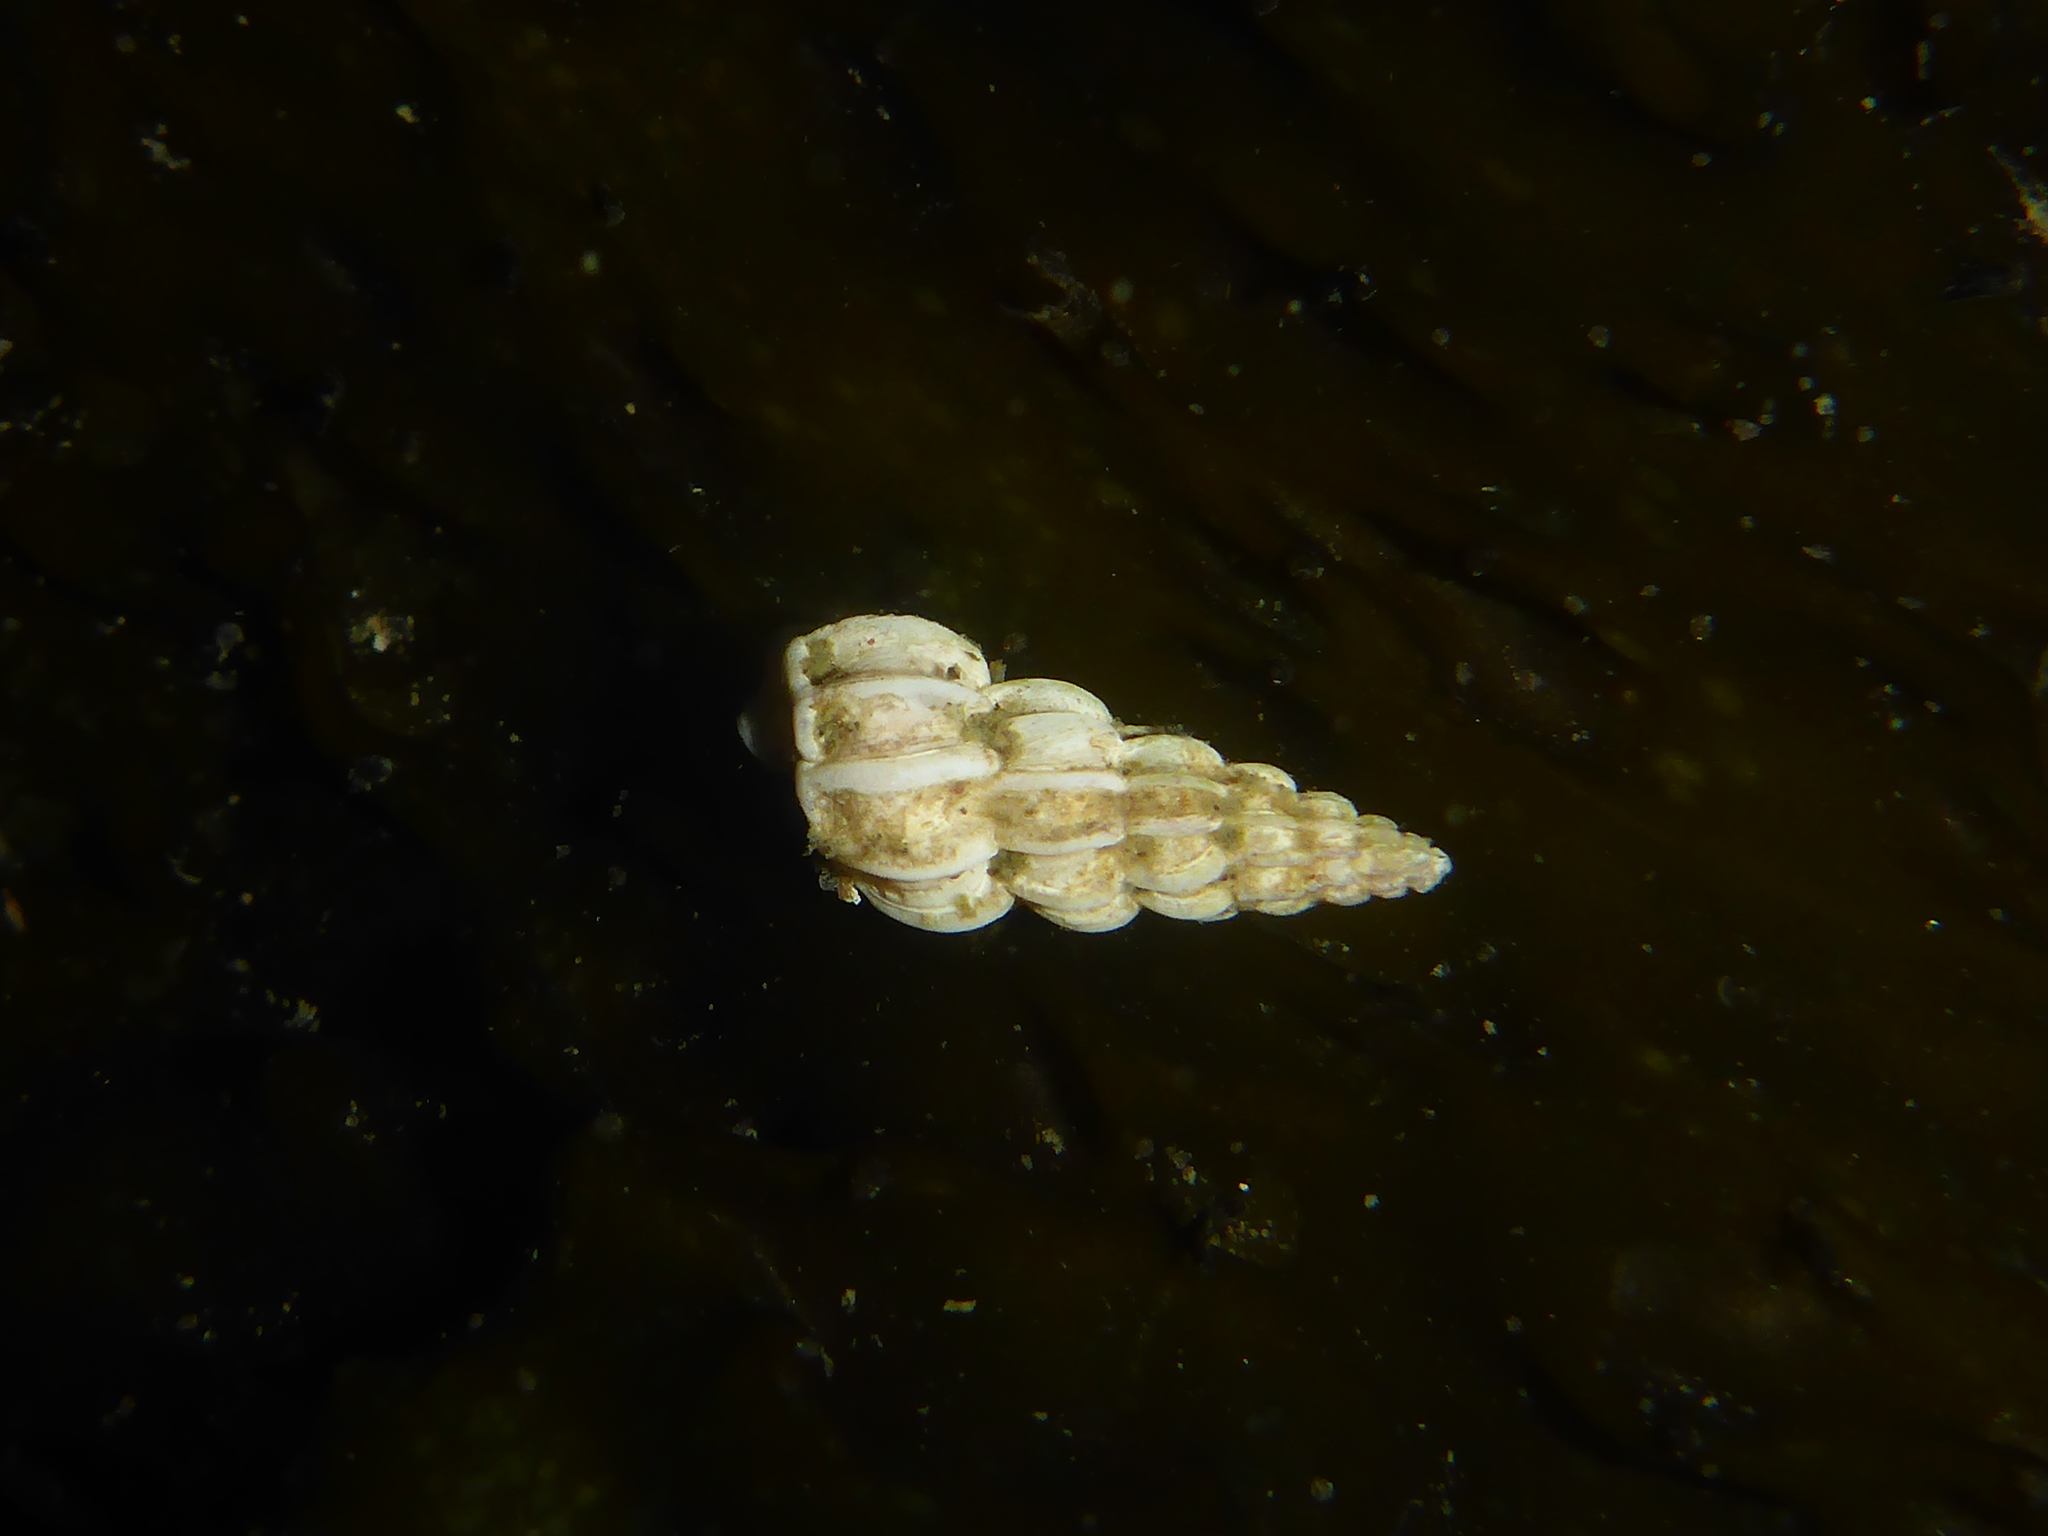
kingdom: Animalia
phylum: Mollusca
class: Gastropoda
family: Epitoniidae
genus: Epitonium
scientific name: Epitonium tinctum
